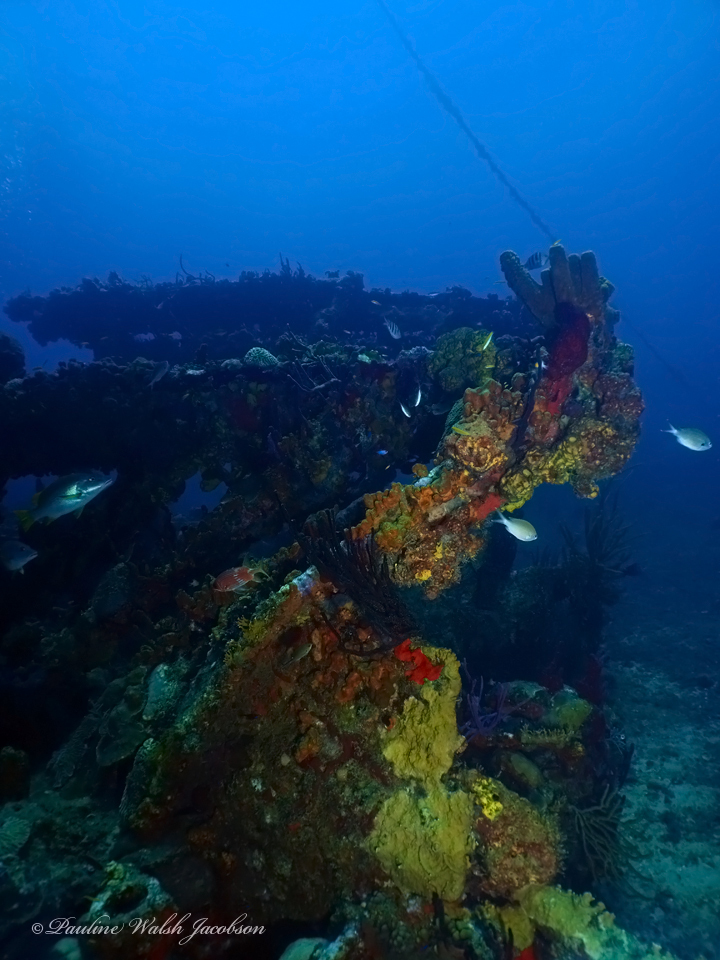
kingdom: Animalia
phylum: Chordata
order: Perciformes
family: Pomacentridae
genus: Chromis
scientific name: Chromis multilineata
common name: Brown chromis
